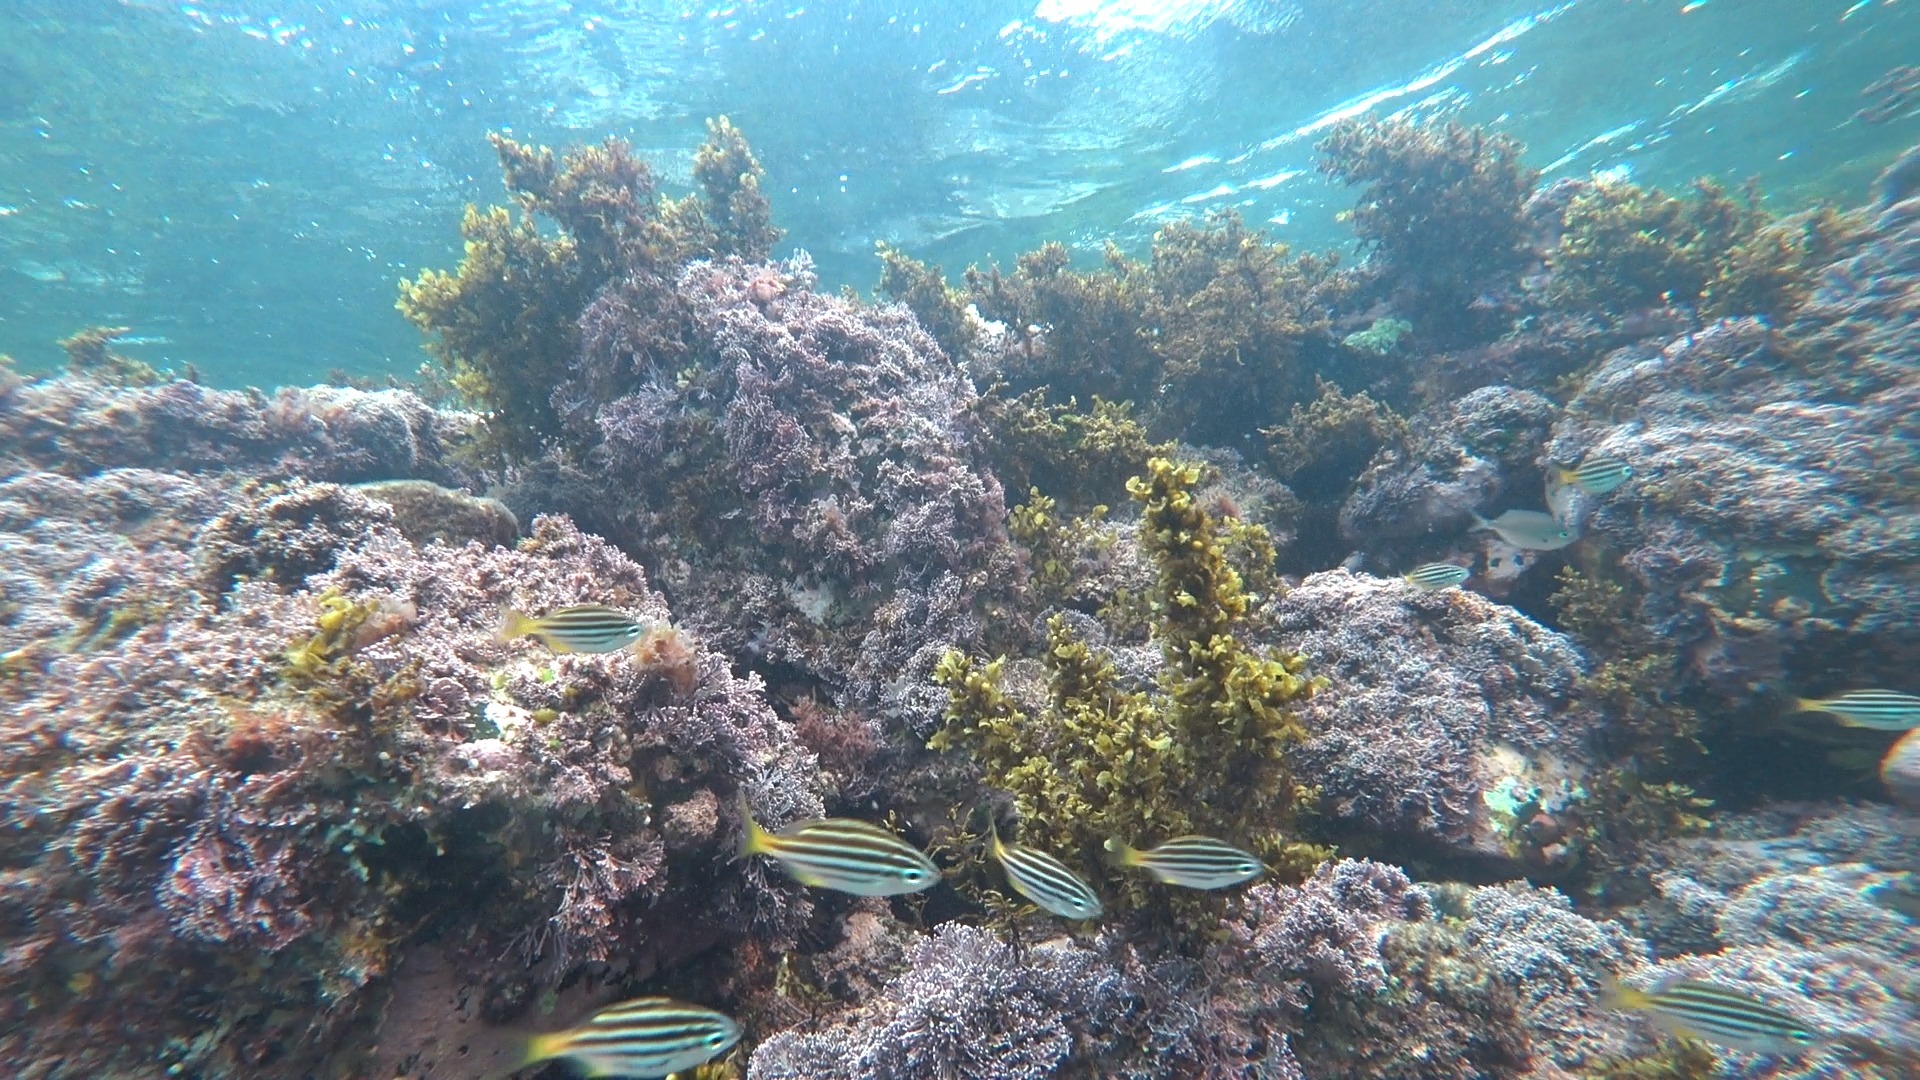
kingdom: Animalia
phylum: Chordata
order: Perciformes
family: Kyphosidae
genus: Atypichthys
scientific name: Atypichthys strigatus
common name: Australian mado
